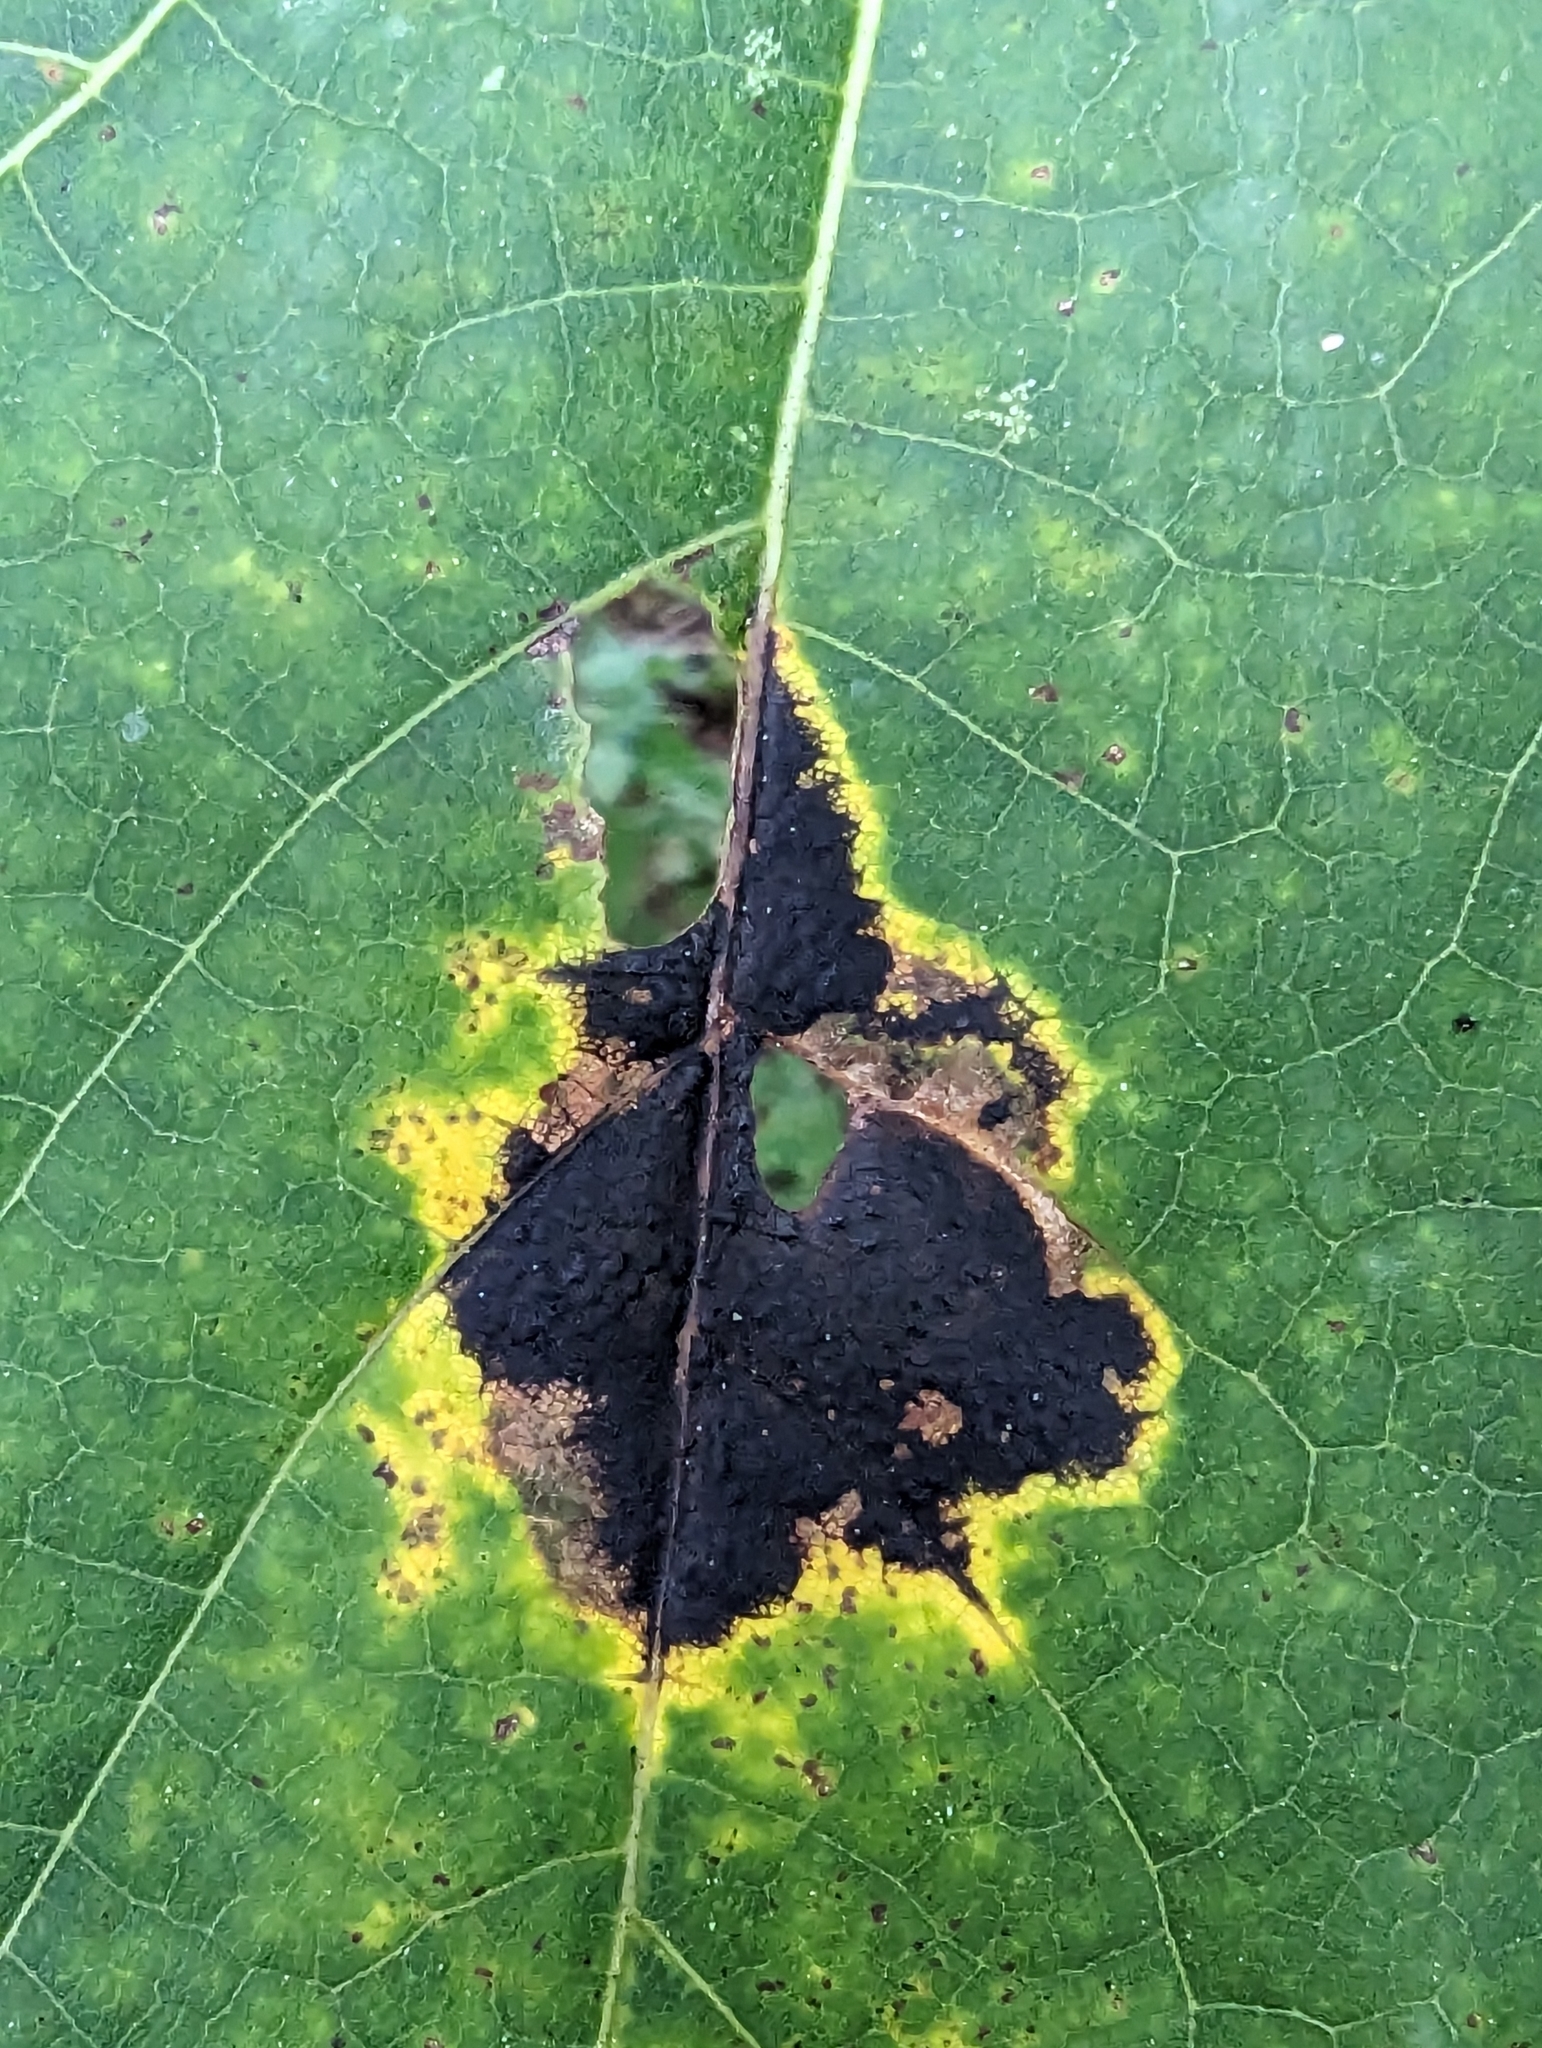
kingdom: Fungi
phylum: Ascomycota
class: Leotiomycetes
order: Rhytismatales
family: Rhytismataceae
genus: Rhytisma
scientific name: Rhytisma acerinum
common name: European tar spot
